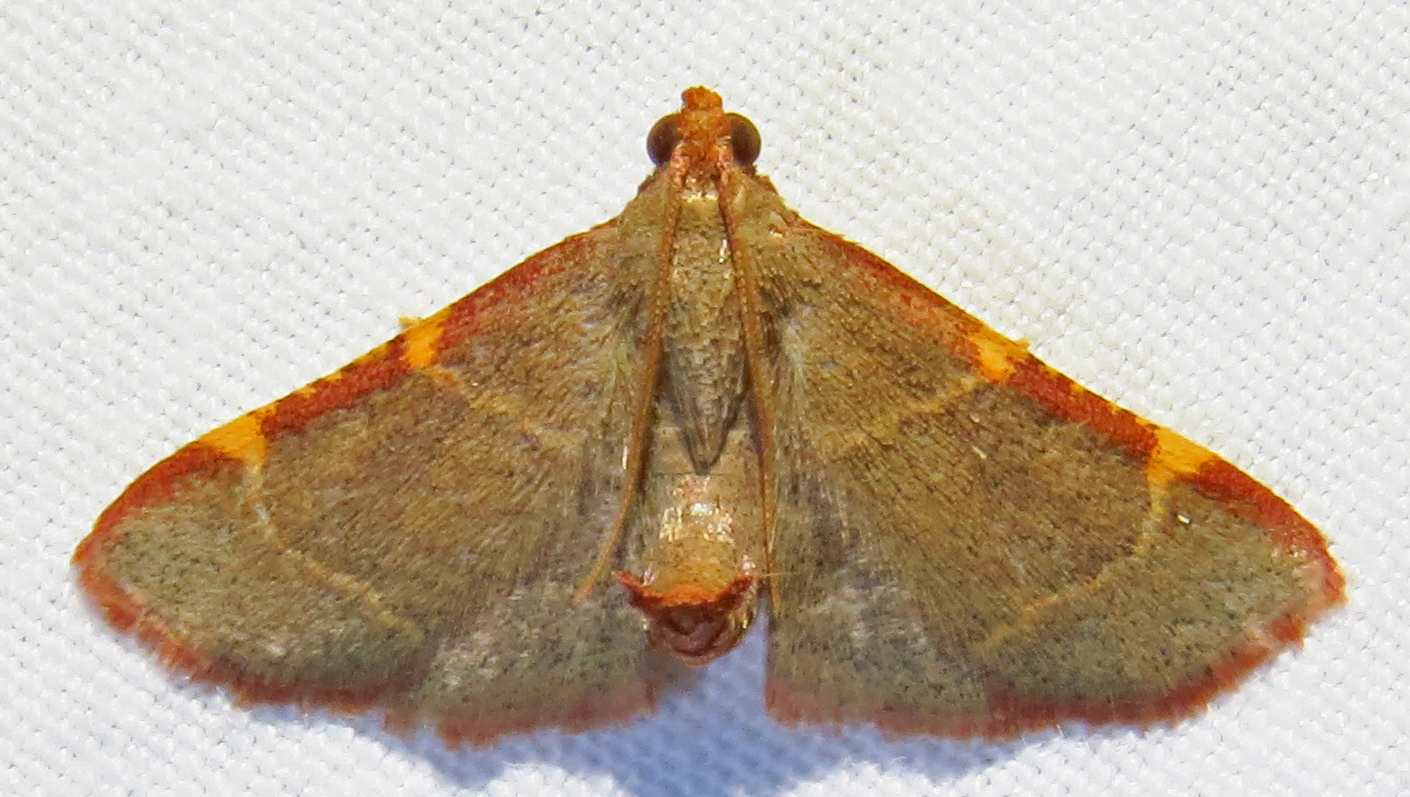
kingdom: Animalia
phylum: Arthropoda
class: Insecta
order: Lepidoptera
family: Pyralidae
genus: Hypsopygia
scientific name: Hypsopygia binodulalis
